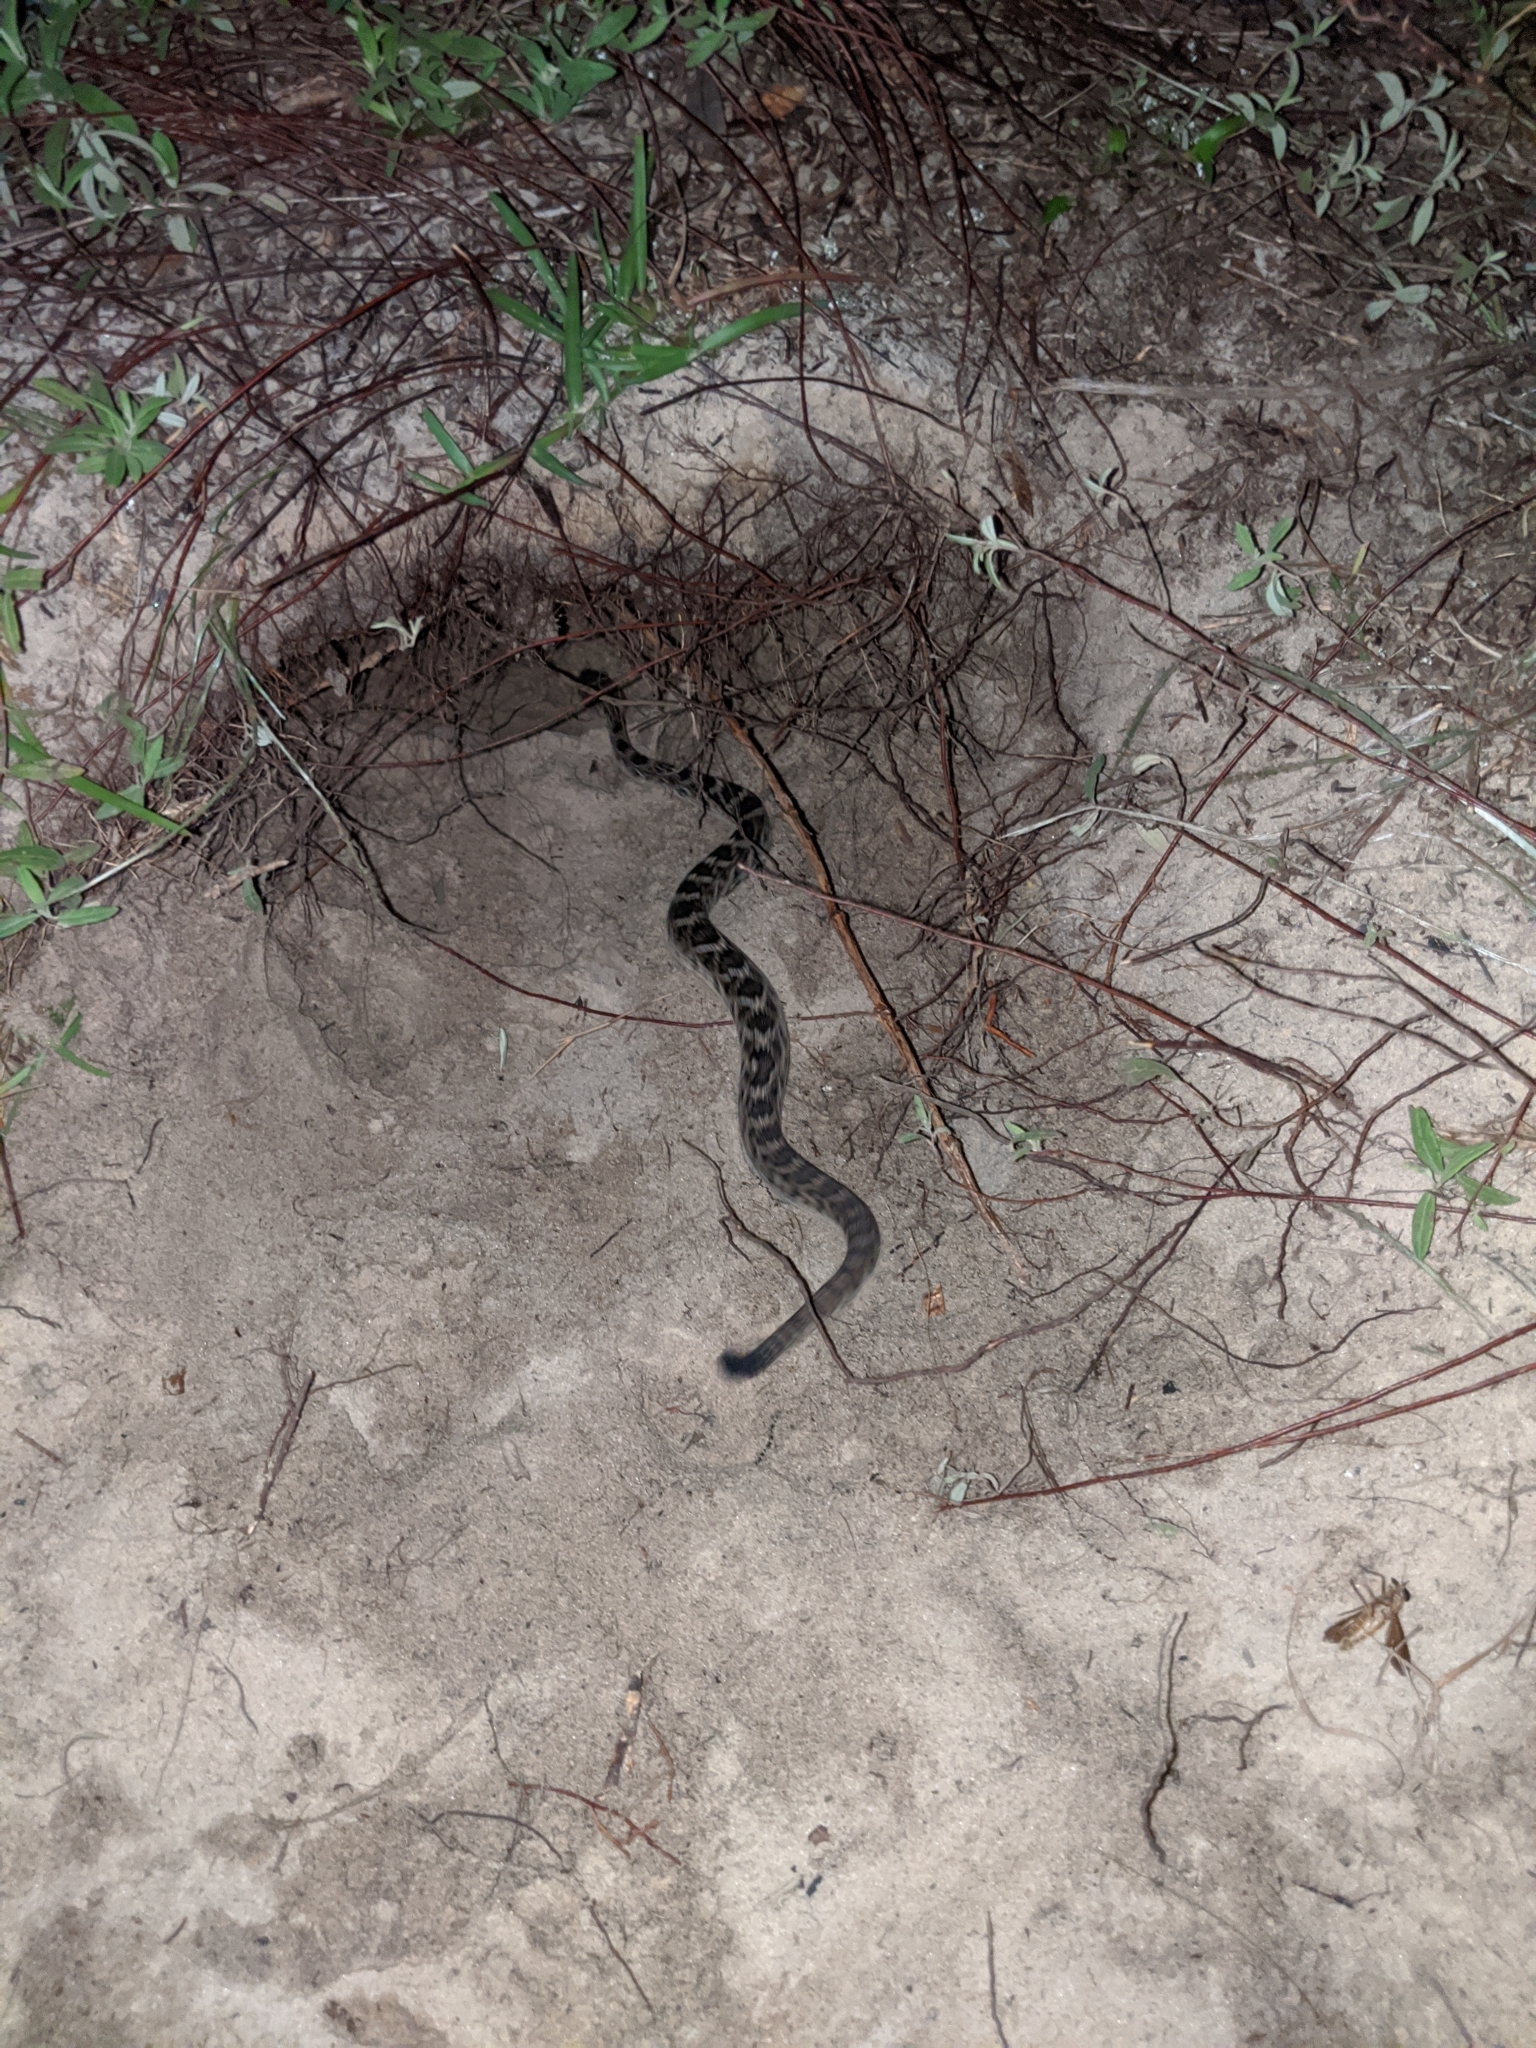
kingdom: Animalia
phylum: Chordata
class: Squamata
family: Viperidae
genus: Crotalus
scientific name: Crotalus adamanteus
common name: Eastern diamondback rattlesnake
